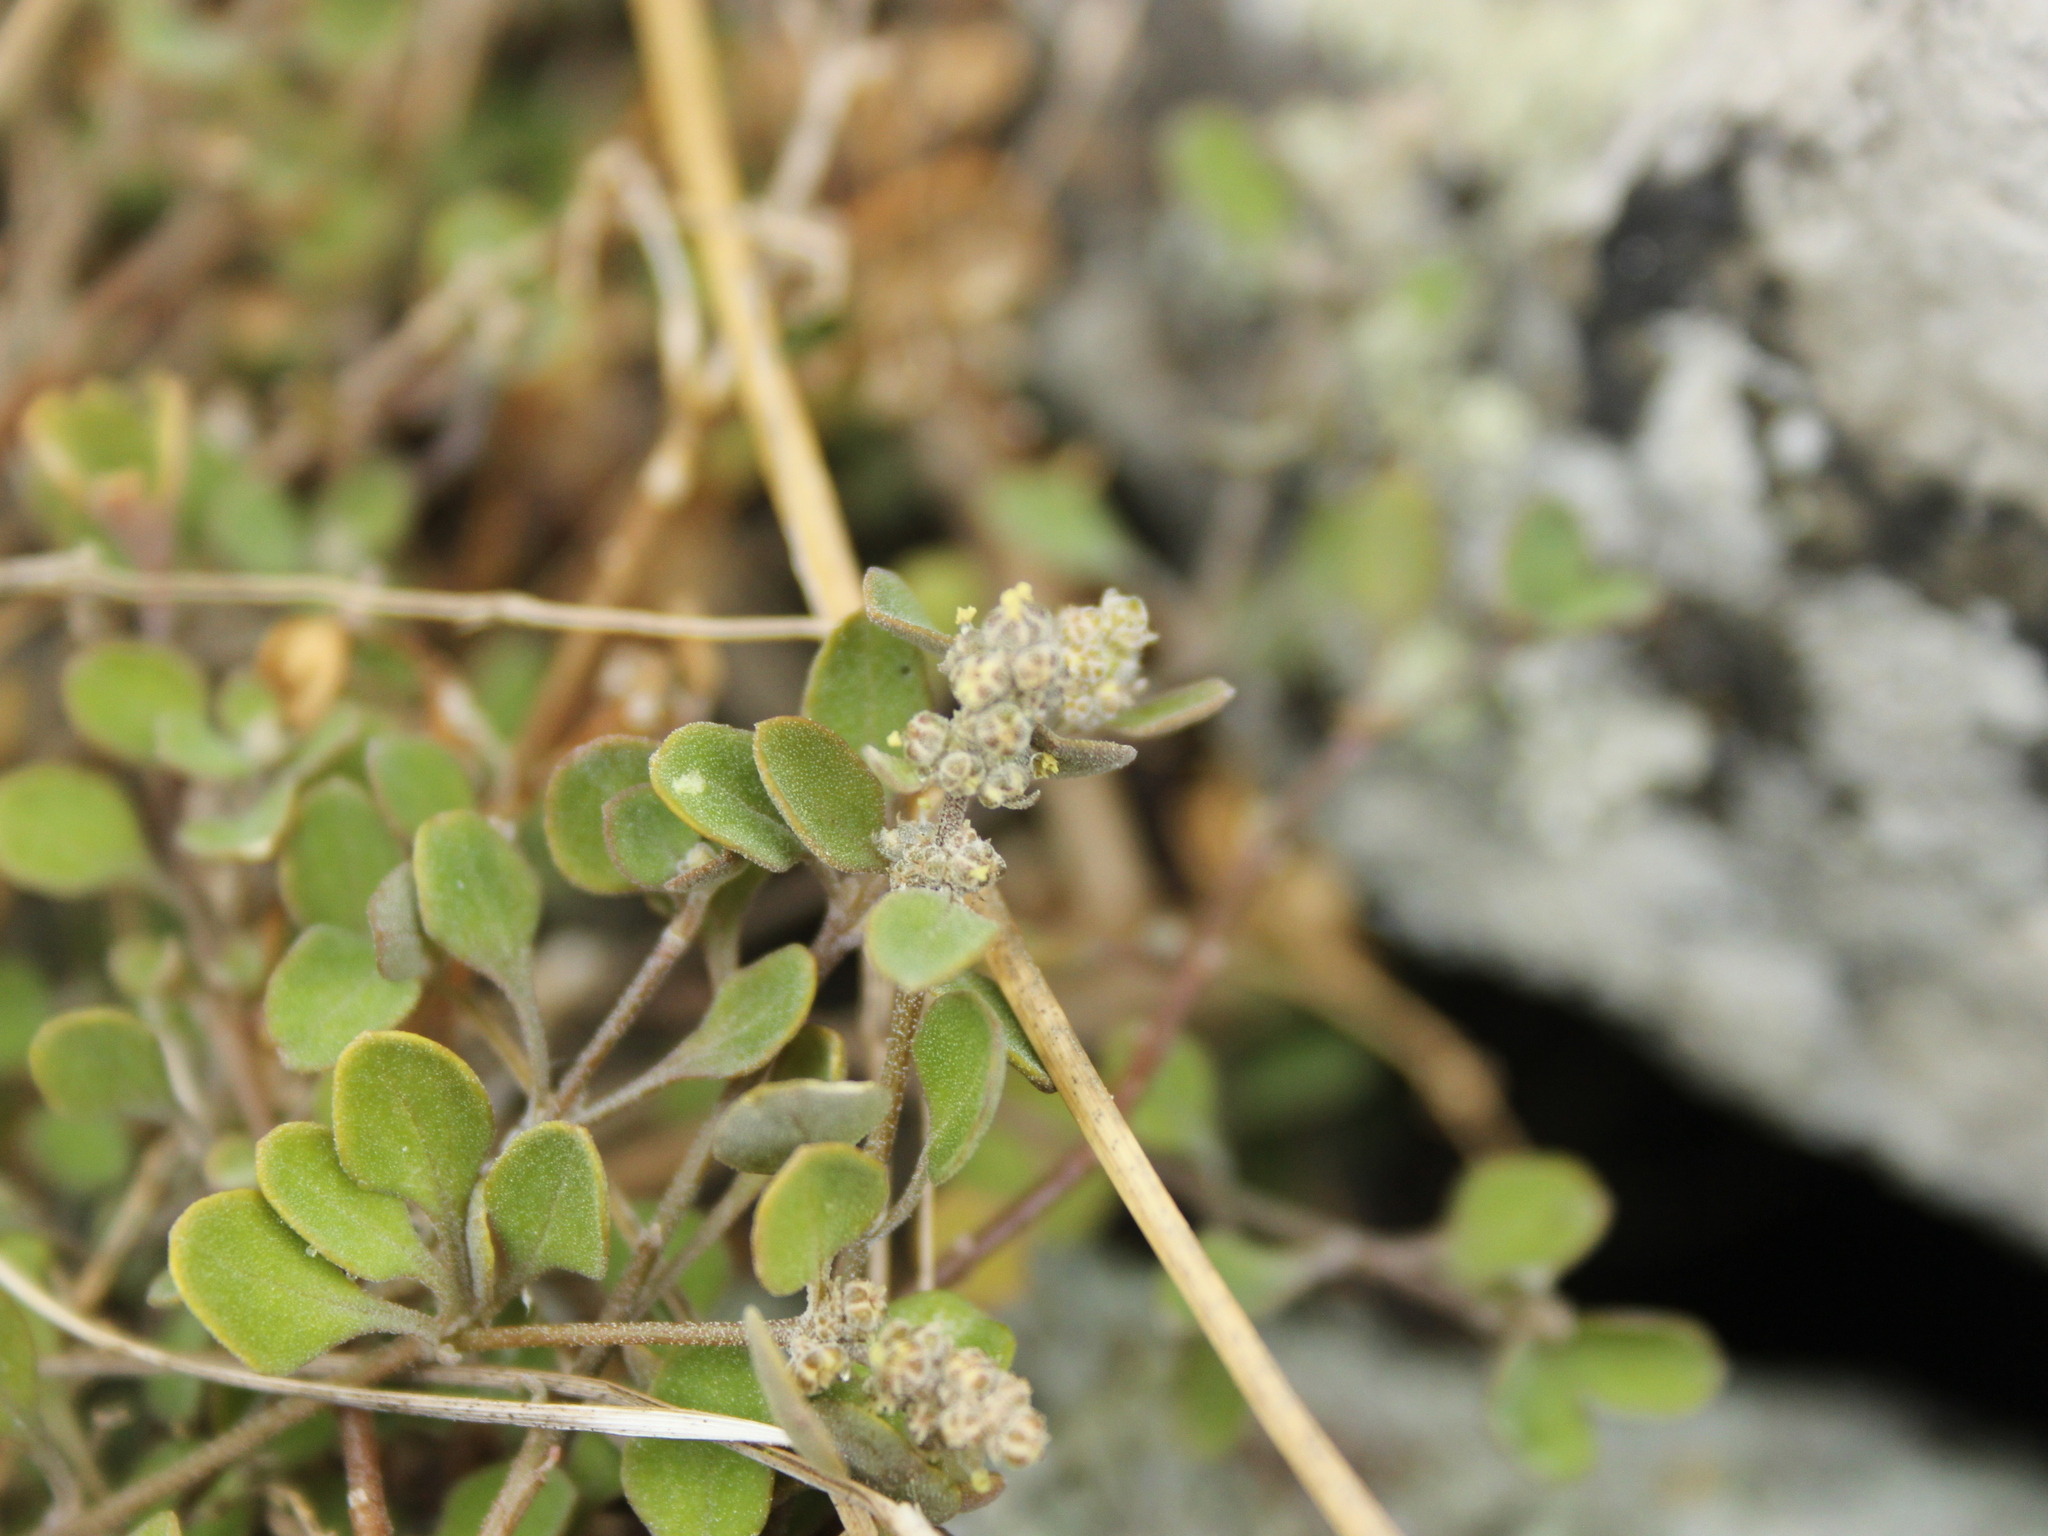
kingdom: Plantae
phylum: Tracheophyta
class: Magnoliopsida
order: Caryophyllales
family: Amaranthaceae
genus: Chenopodium
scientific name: Chenopodium allanii
